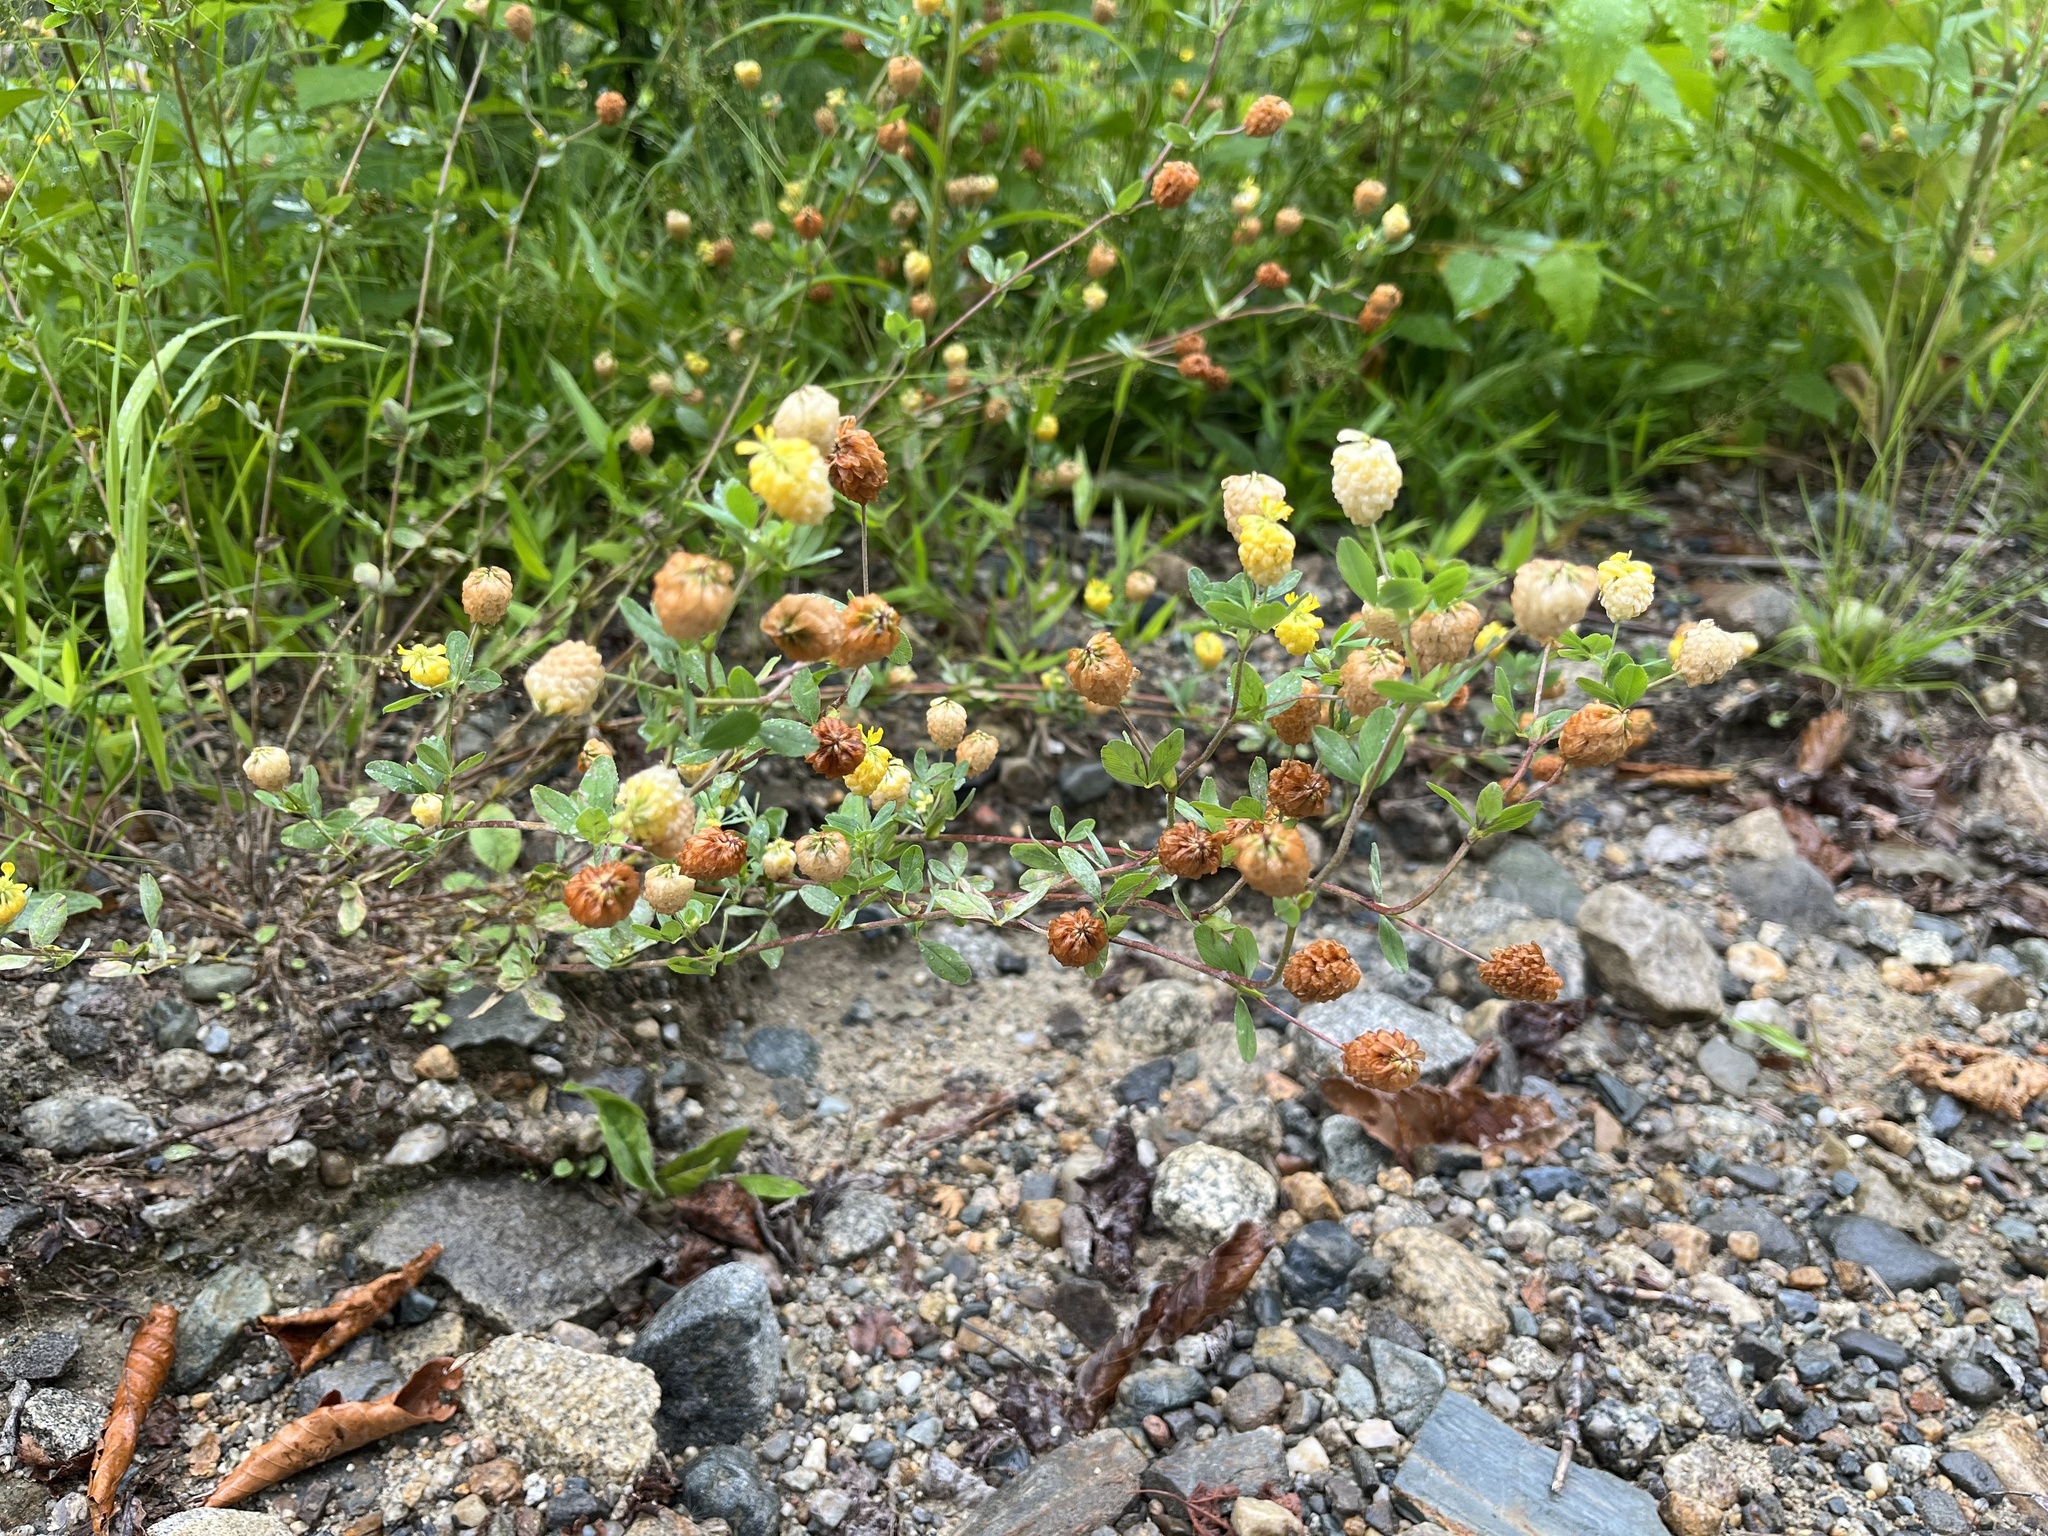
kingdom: Plantae
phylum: Tracheophyta
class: Magnoliopsida
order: Fabales
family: Fabaceae
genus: Trifolium
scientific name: Trifolium aureum
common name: Golden clover
